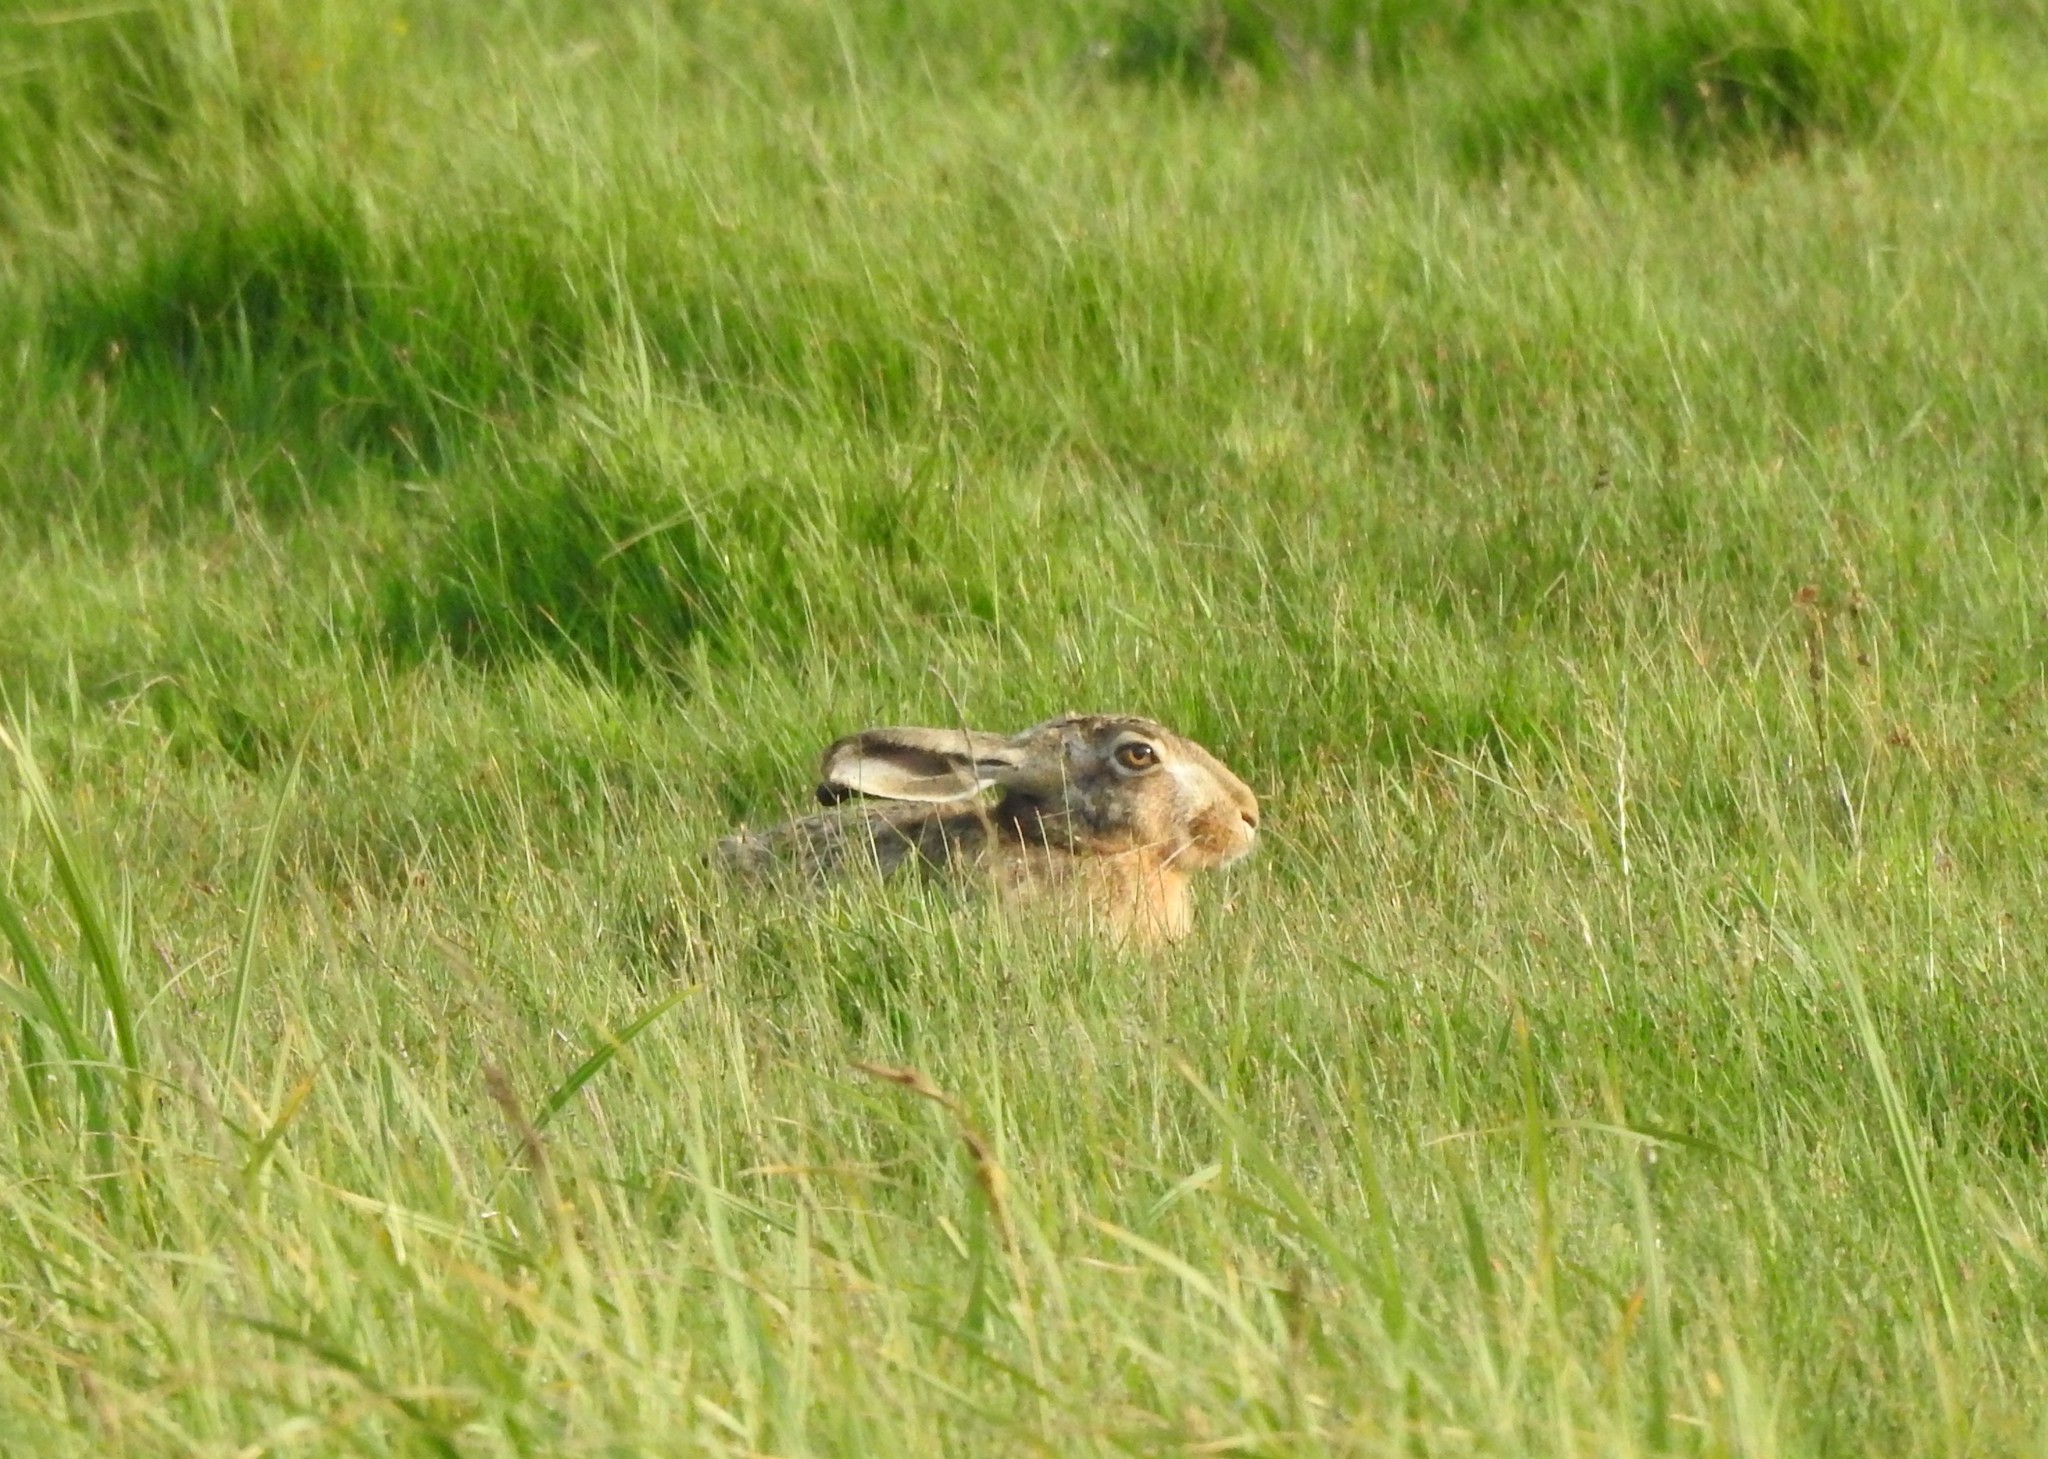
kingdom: Animalia
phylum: Chordata
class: Mammalia
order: Lagomorpha
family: Leporidae
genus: Lepus
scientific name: Lepus europaeus
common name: European hare
